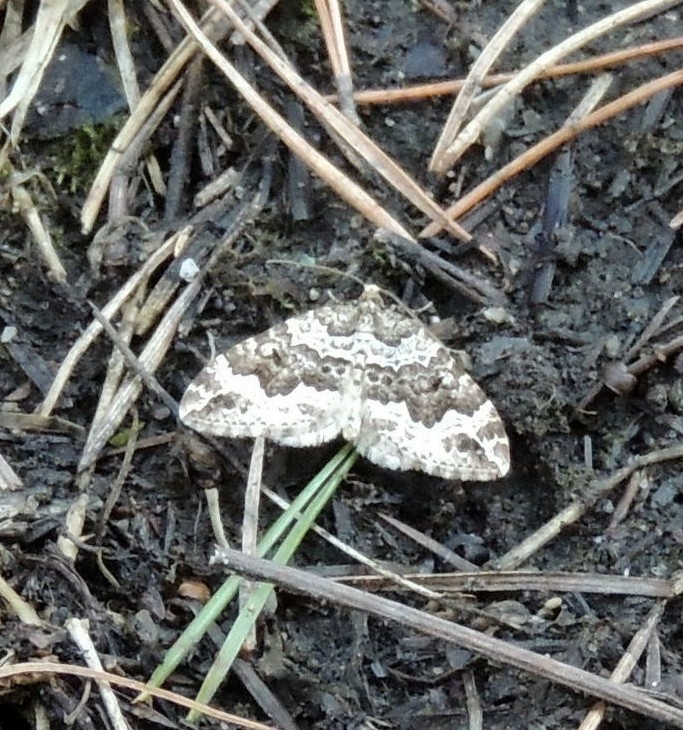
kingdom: Animalia
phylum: Arthropoda
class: Insecta
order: Lepidoptera
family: Geometridae
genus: Lampropteryx
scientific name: Lampropteryx suffumata
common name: Water carpet
